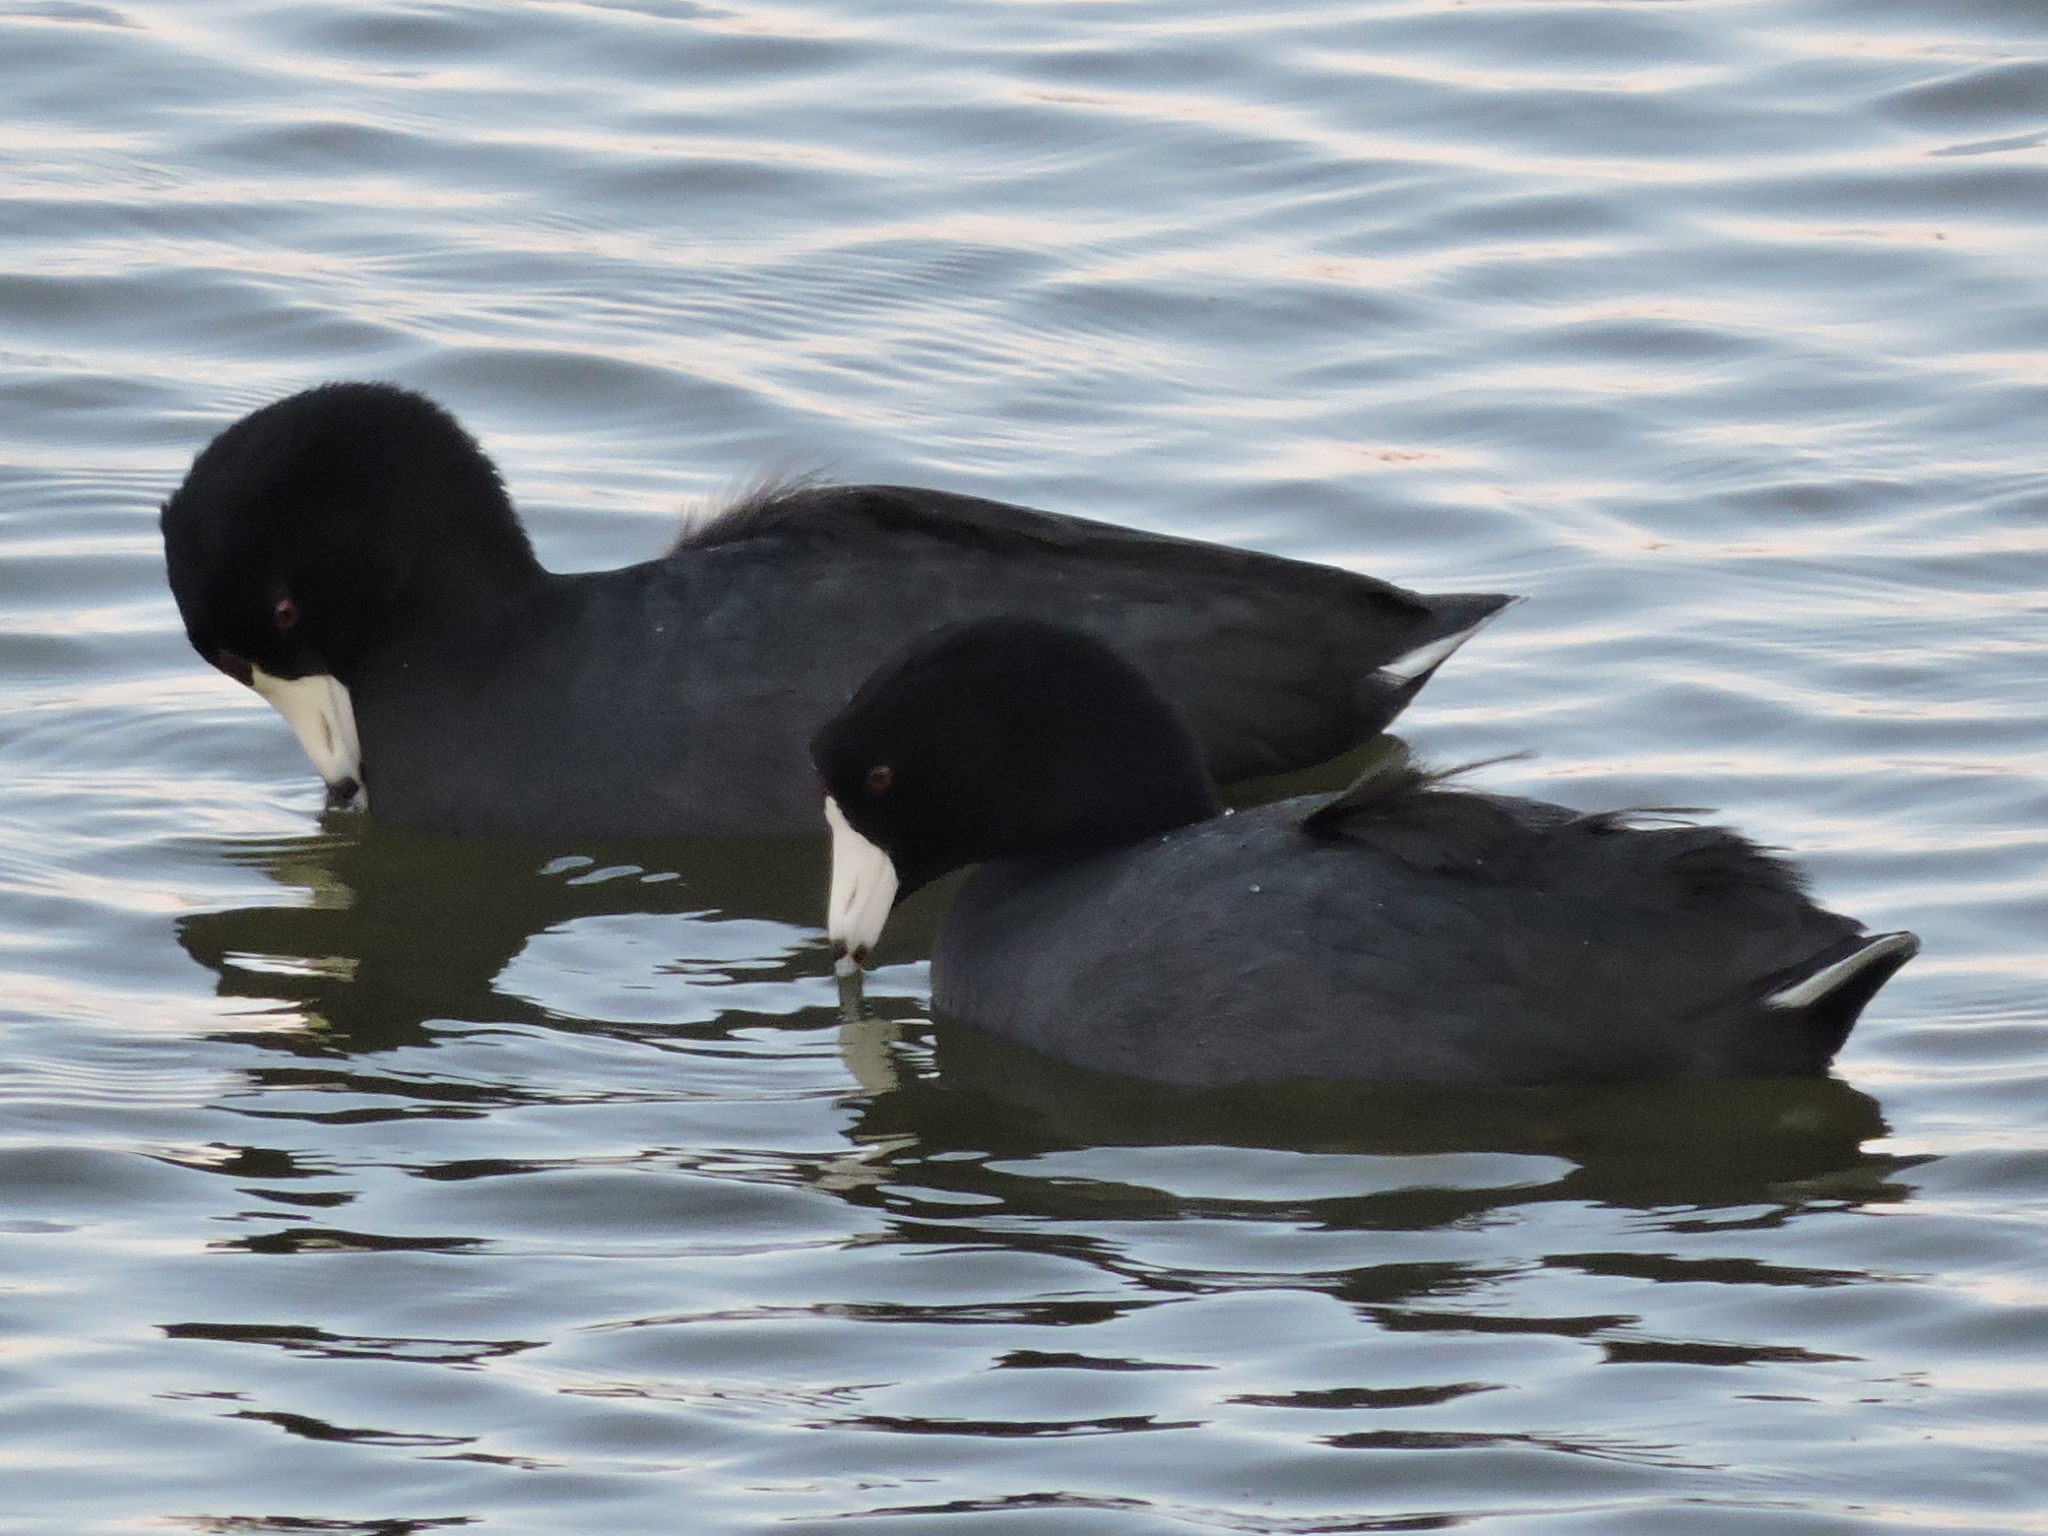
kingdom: Animalia
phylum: Chordata
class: Aves
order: Gruiformes
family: Rallidae
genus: Fulica
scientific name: Fulica americana
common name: American coot
